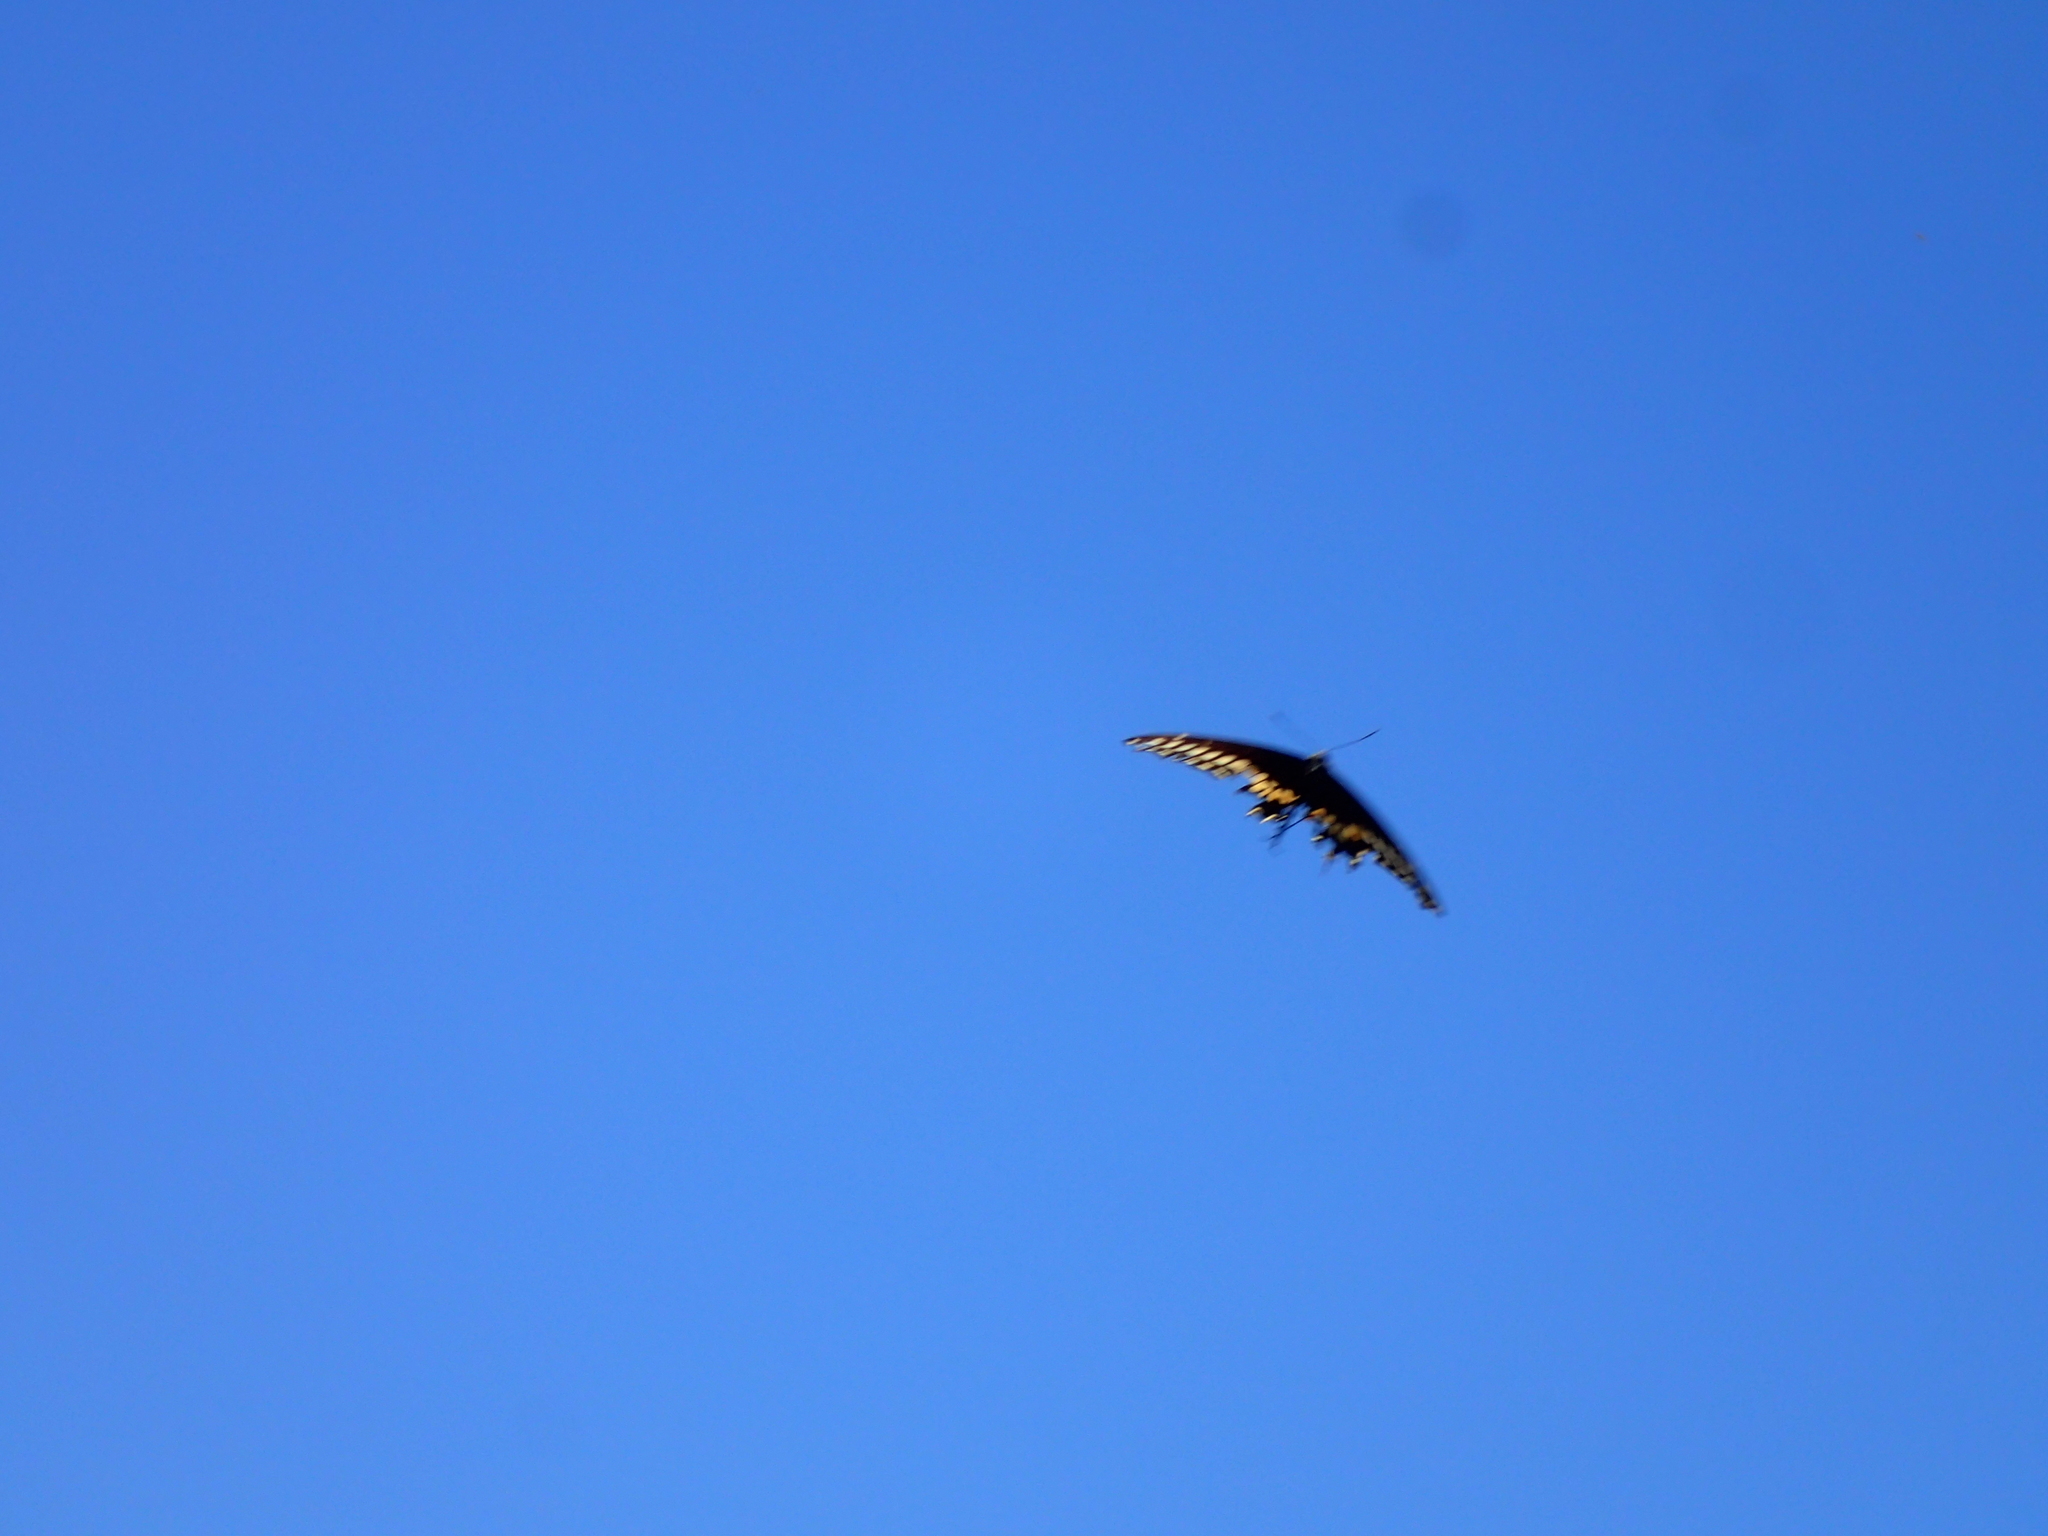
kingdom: Animalia
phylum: Arthropoda
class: Insecta
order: Lepidoptera
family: Papilionidae
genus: Papilio
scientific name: Papilio polyxenes
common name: Black swallowtail
